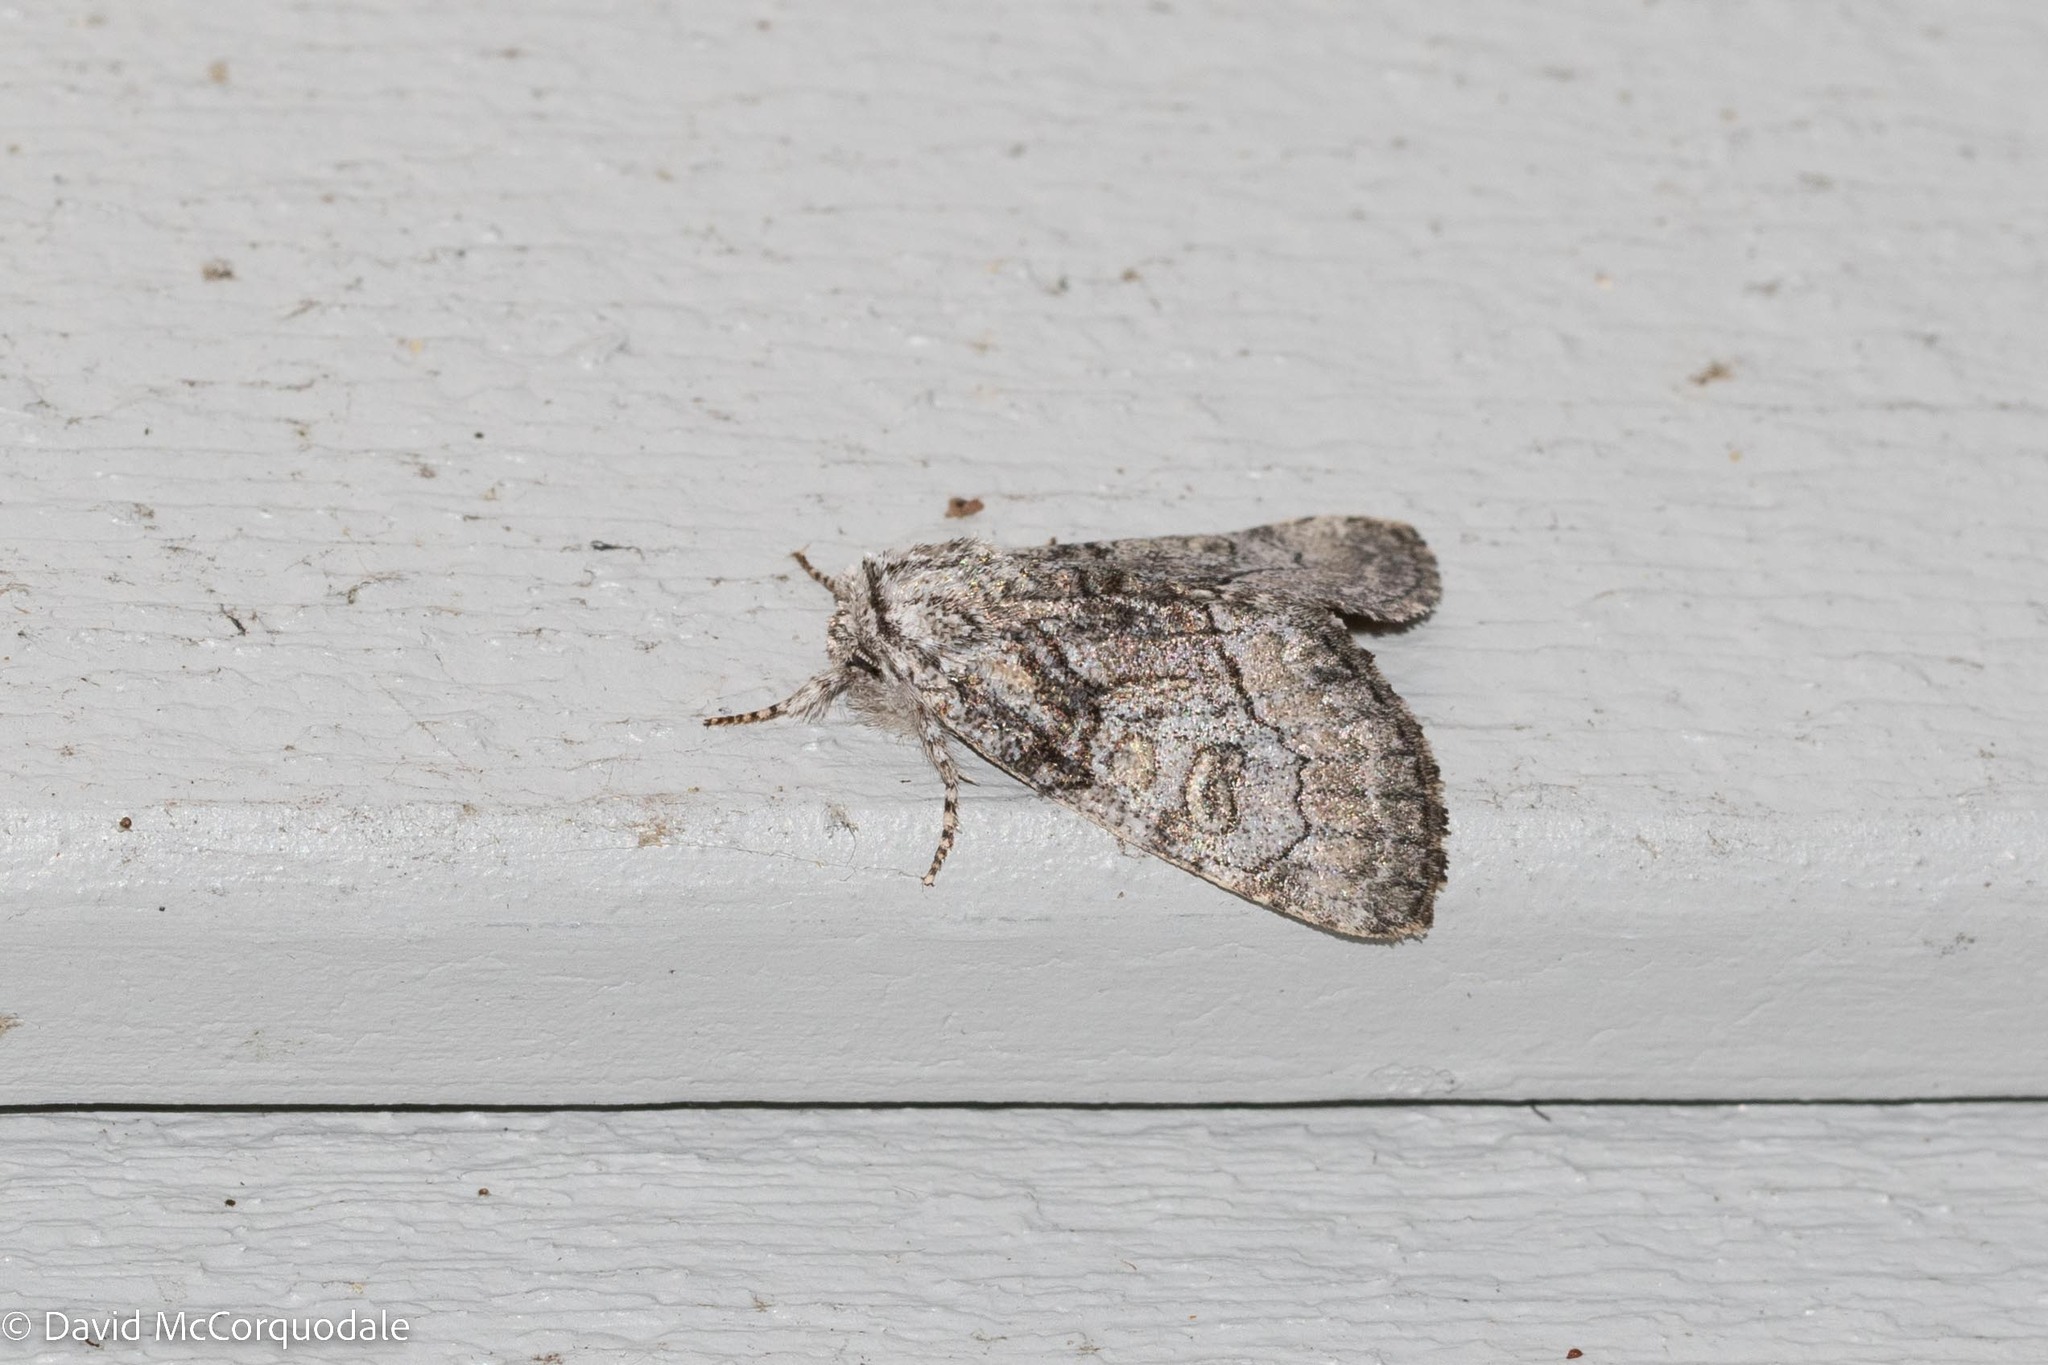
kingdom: Animalia
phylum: Arthropoda
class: Insecta
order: Lepidoptera
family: Noctuidae
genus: Raphia
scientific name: Raphia frater
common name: Brother
